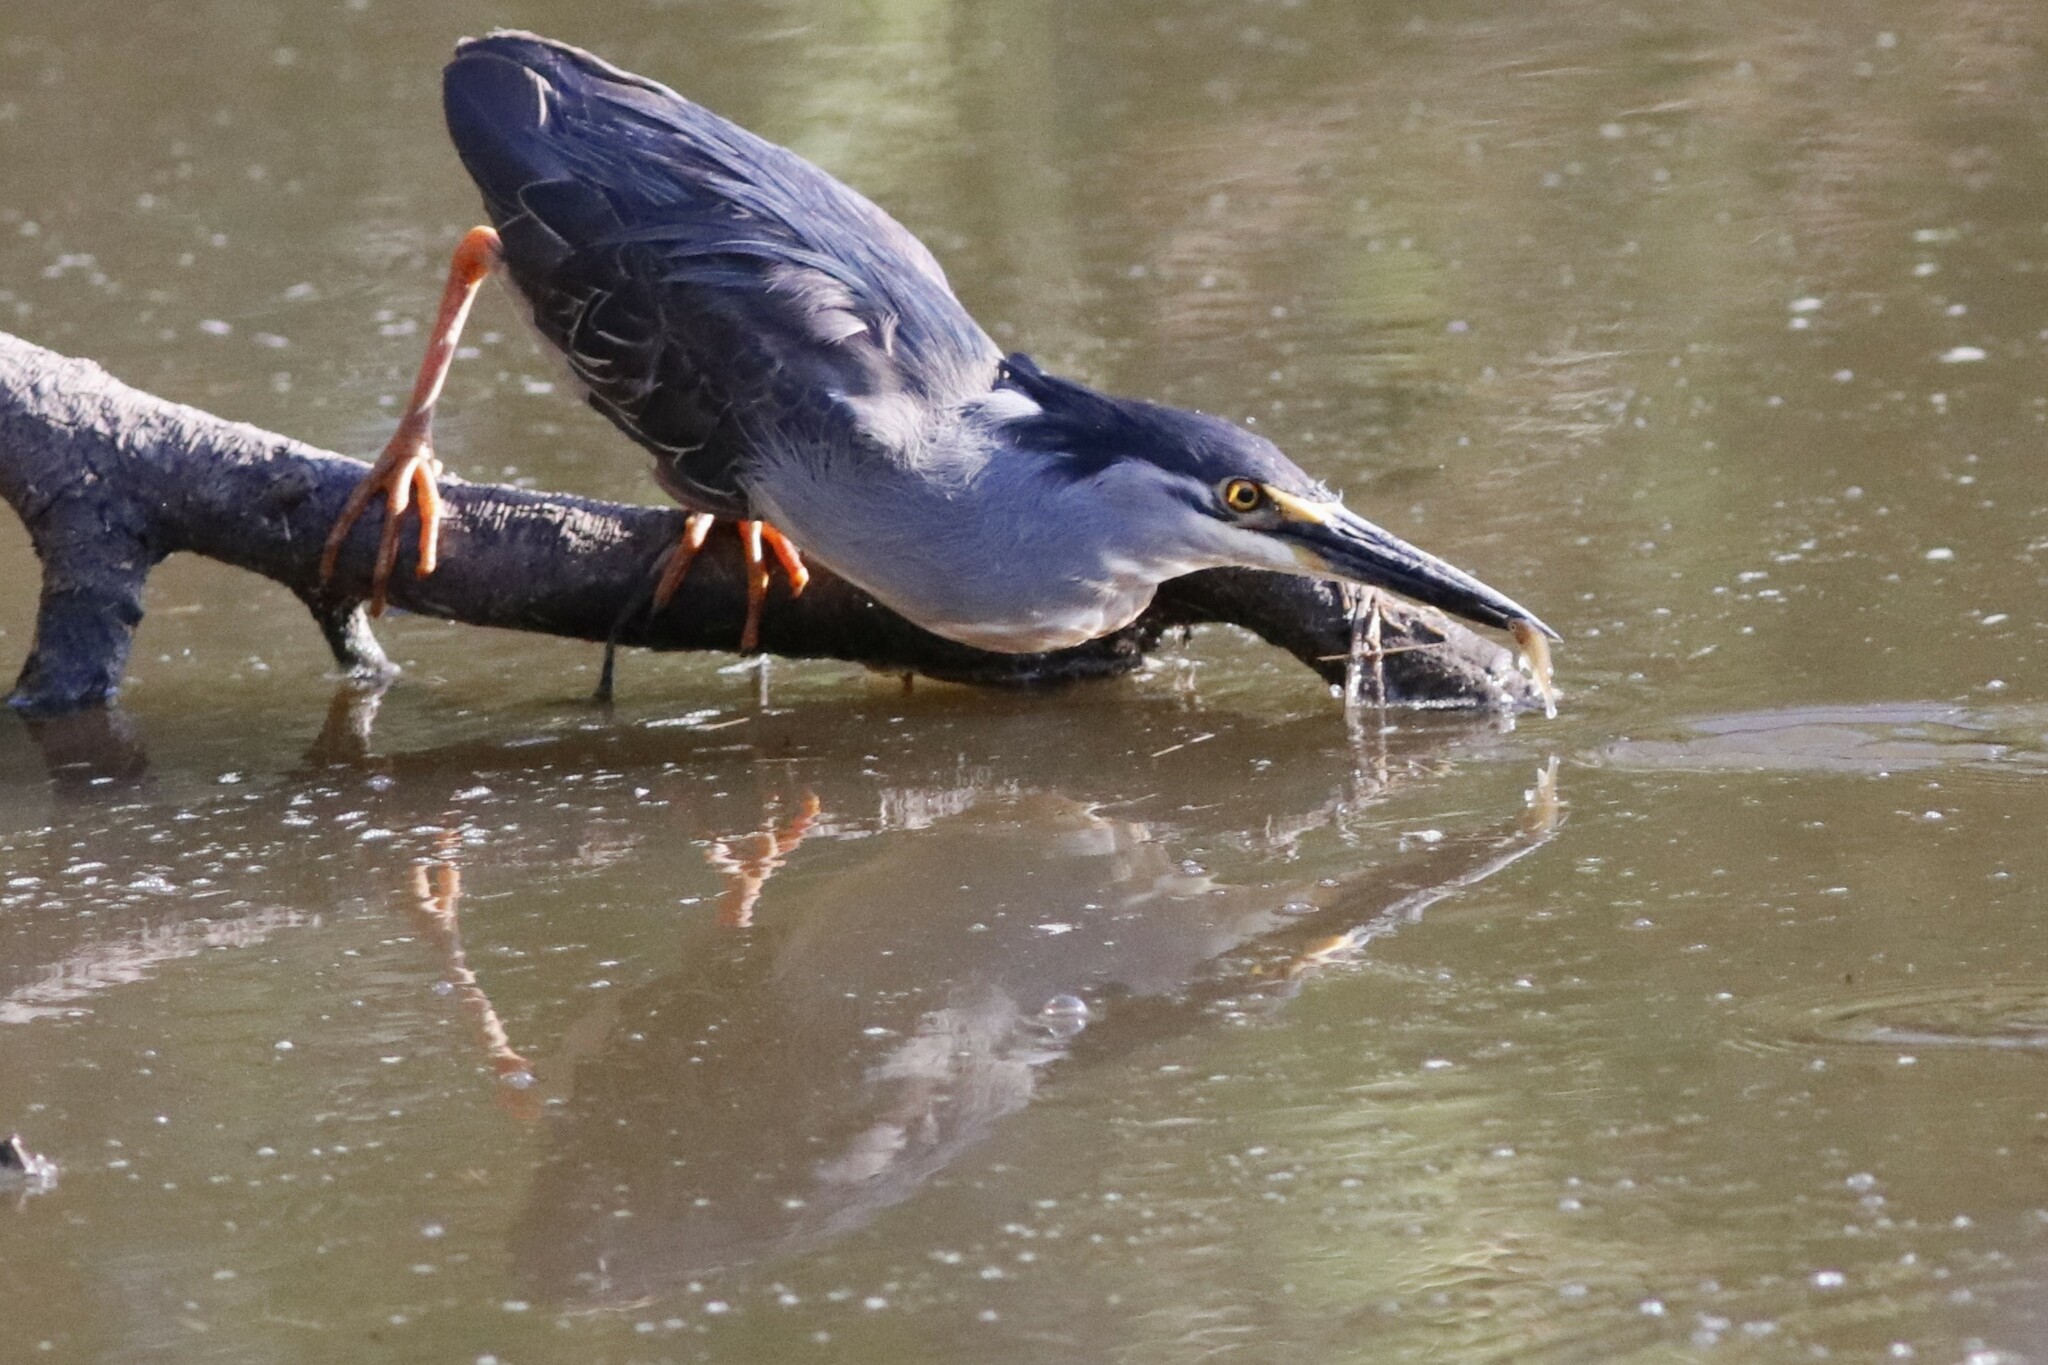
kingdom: Animalia
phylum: Chordata
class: Aves
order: Pelecaniformes
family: Ardeidae
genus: Butorides
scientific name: Butorides striata
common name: Striated heron
